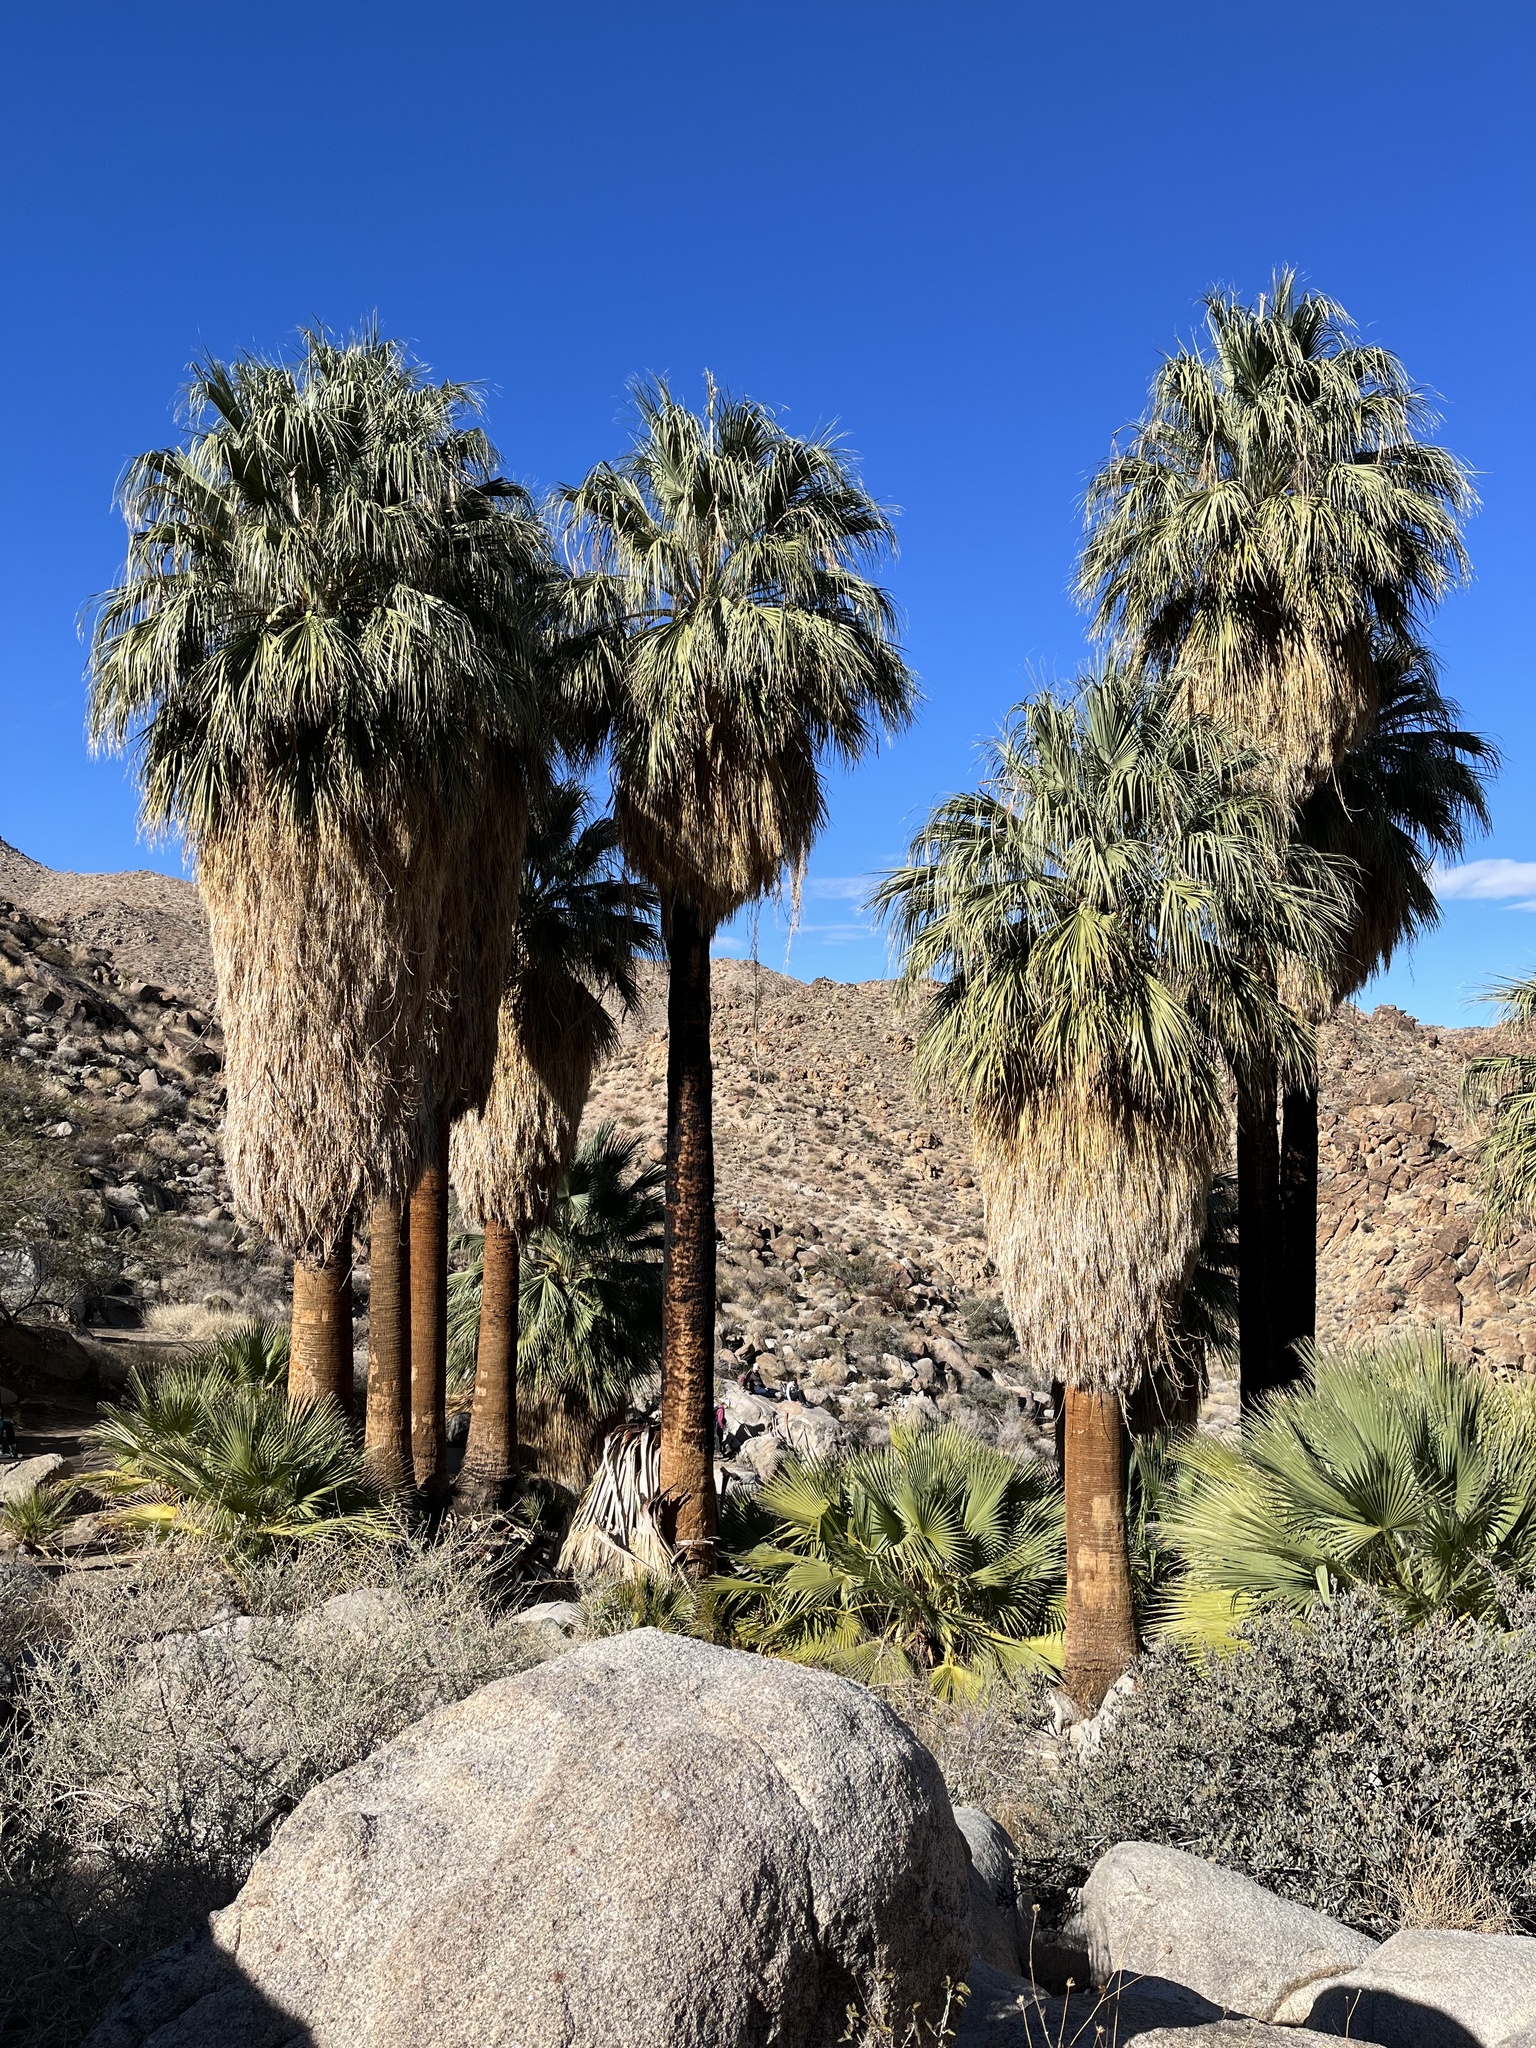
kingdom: Plantae
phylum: Tracheophyta
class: Liliopsida
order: Arecales
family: Arecaceae
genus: Washingtonia
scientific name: Washingtonia filifera
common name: California fan palm
